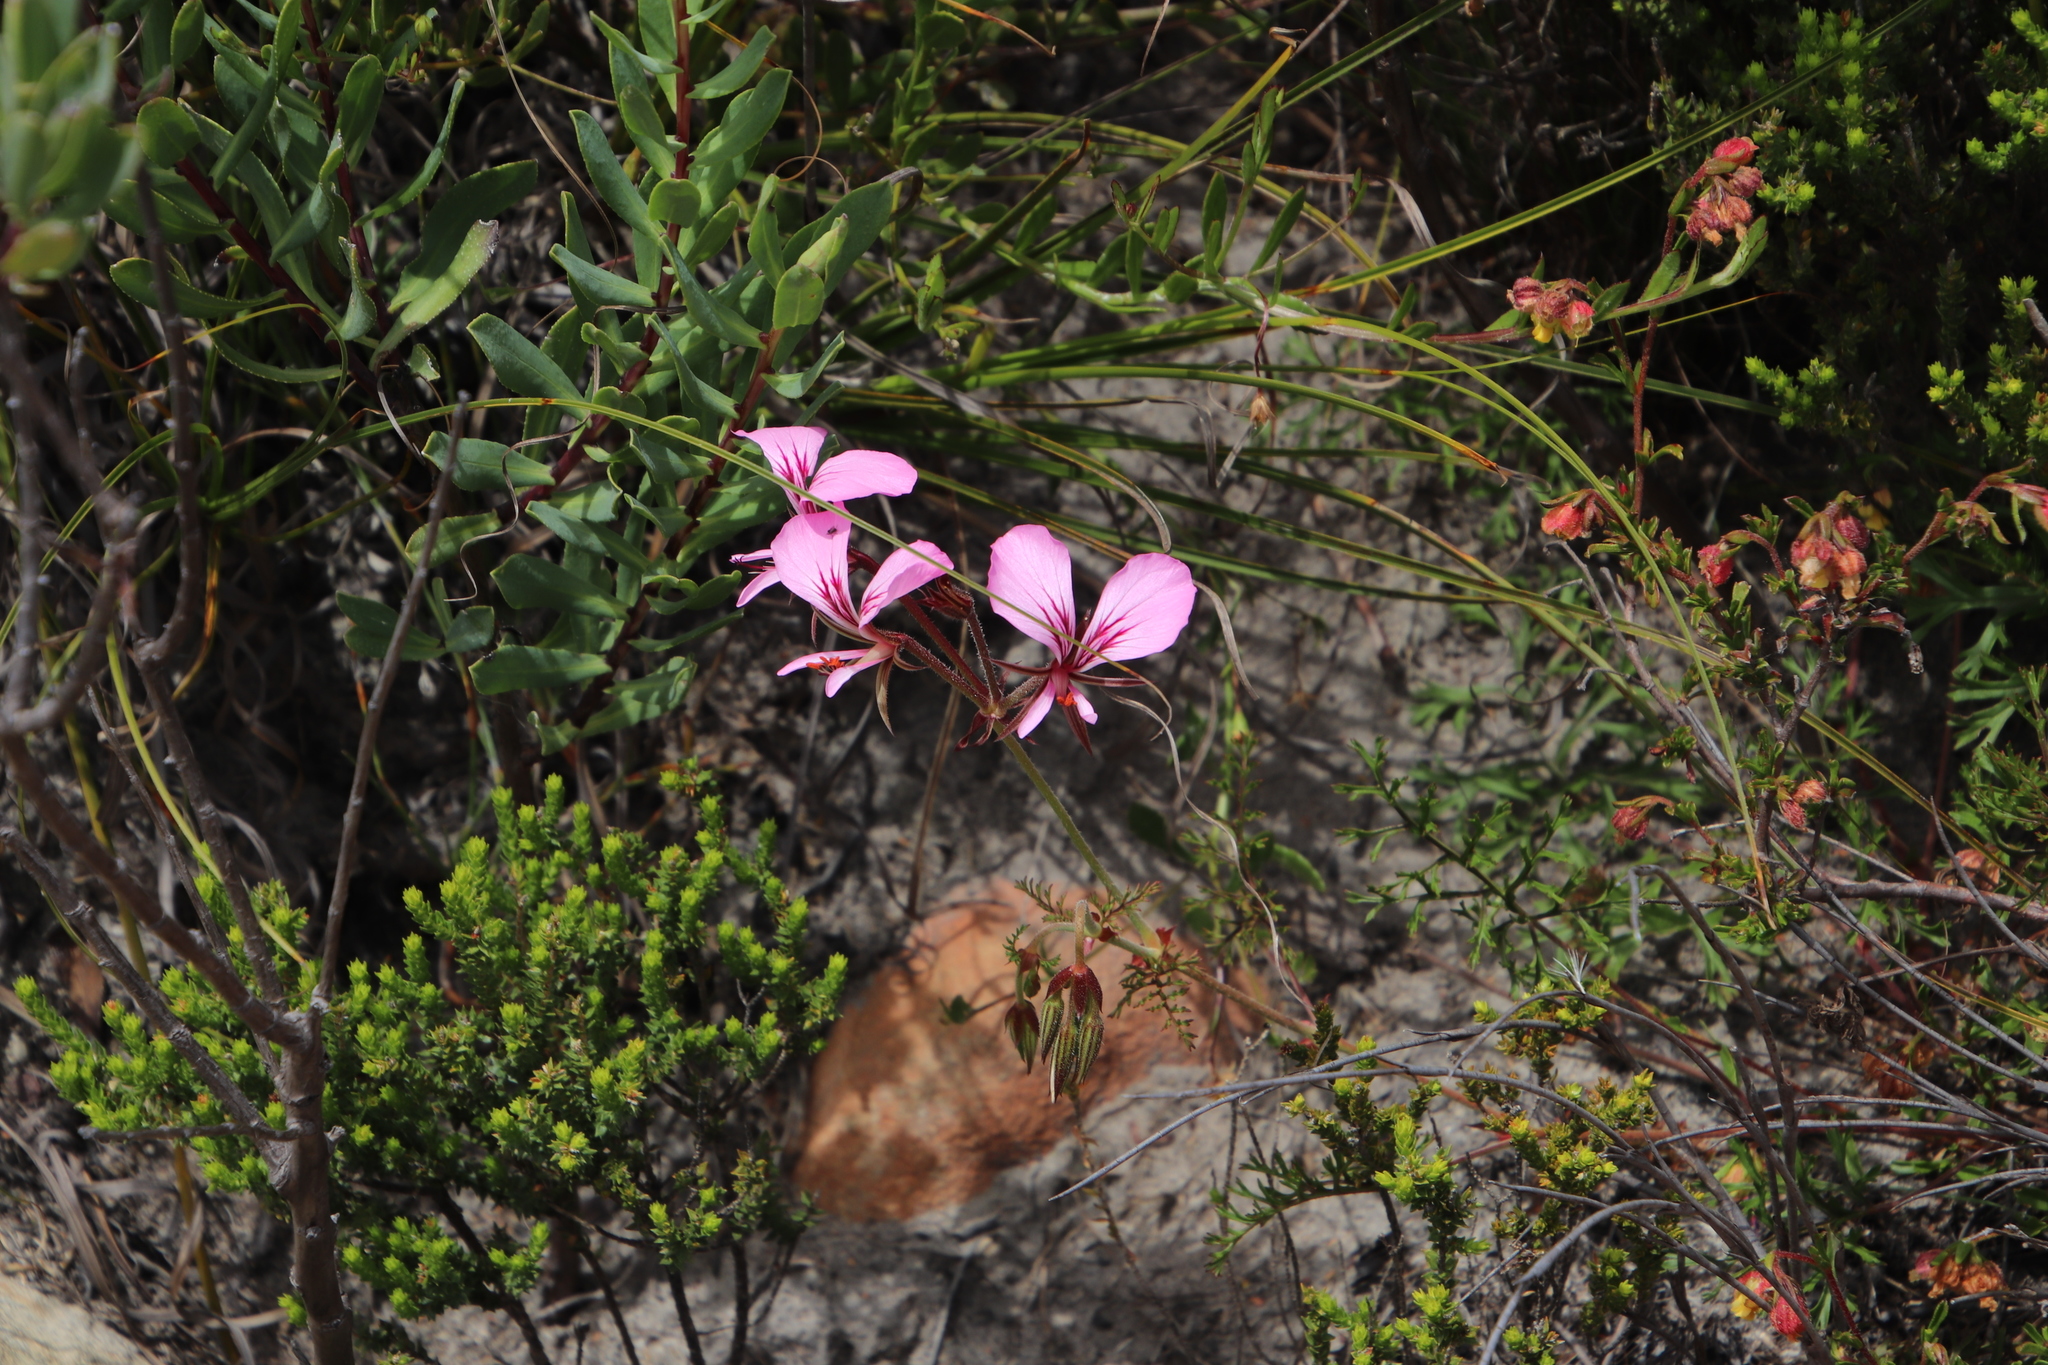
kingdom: Plantae
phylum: Tracheophyta
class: Magnoliopsida
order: Geraniales
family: Geraniaceae
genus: Pelargonium
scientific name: Pelargonium longicaule
